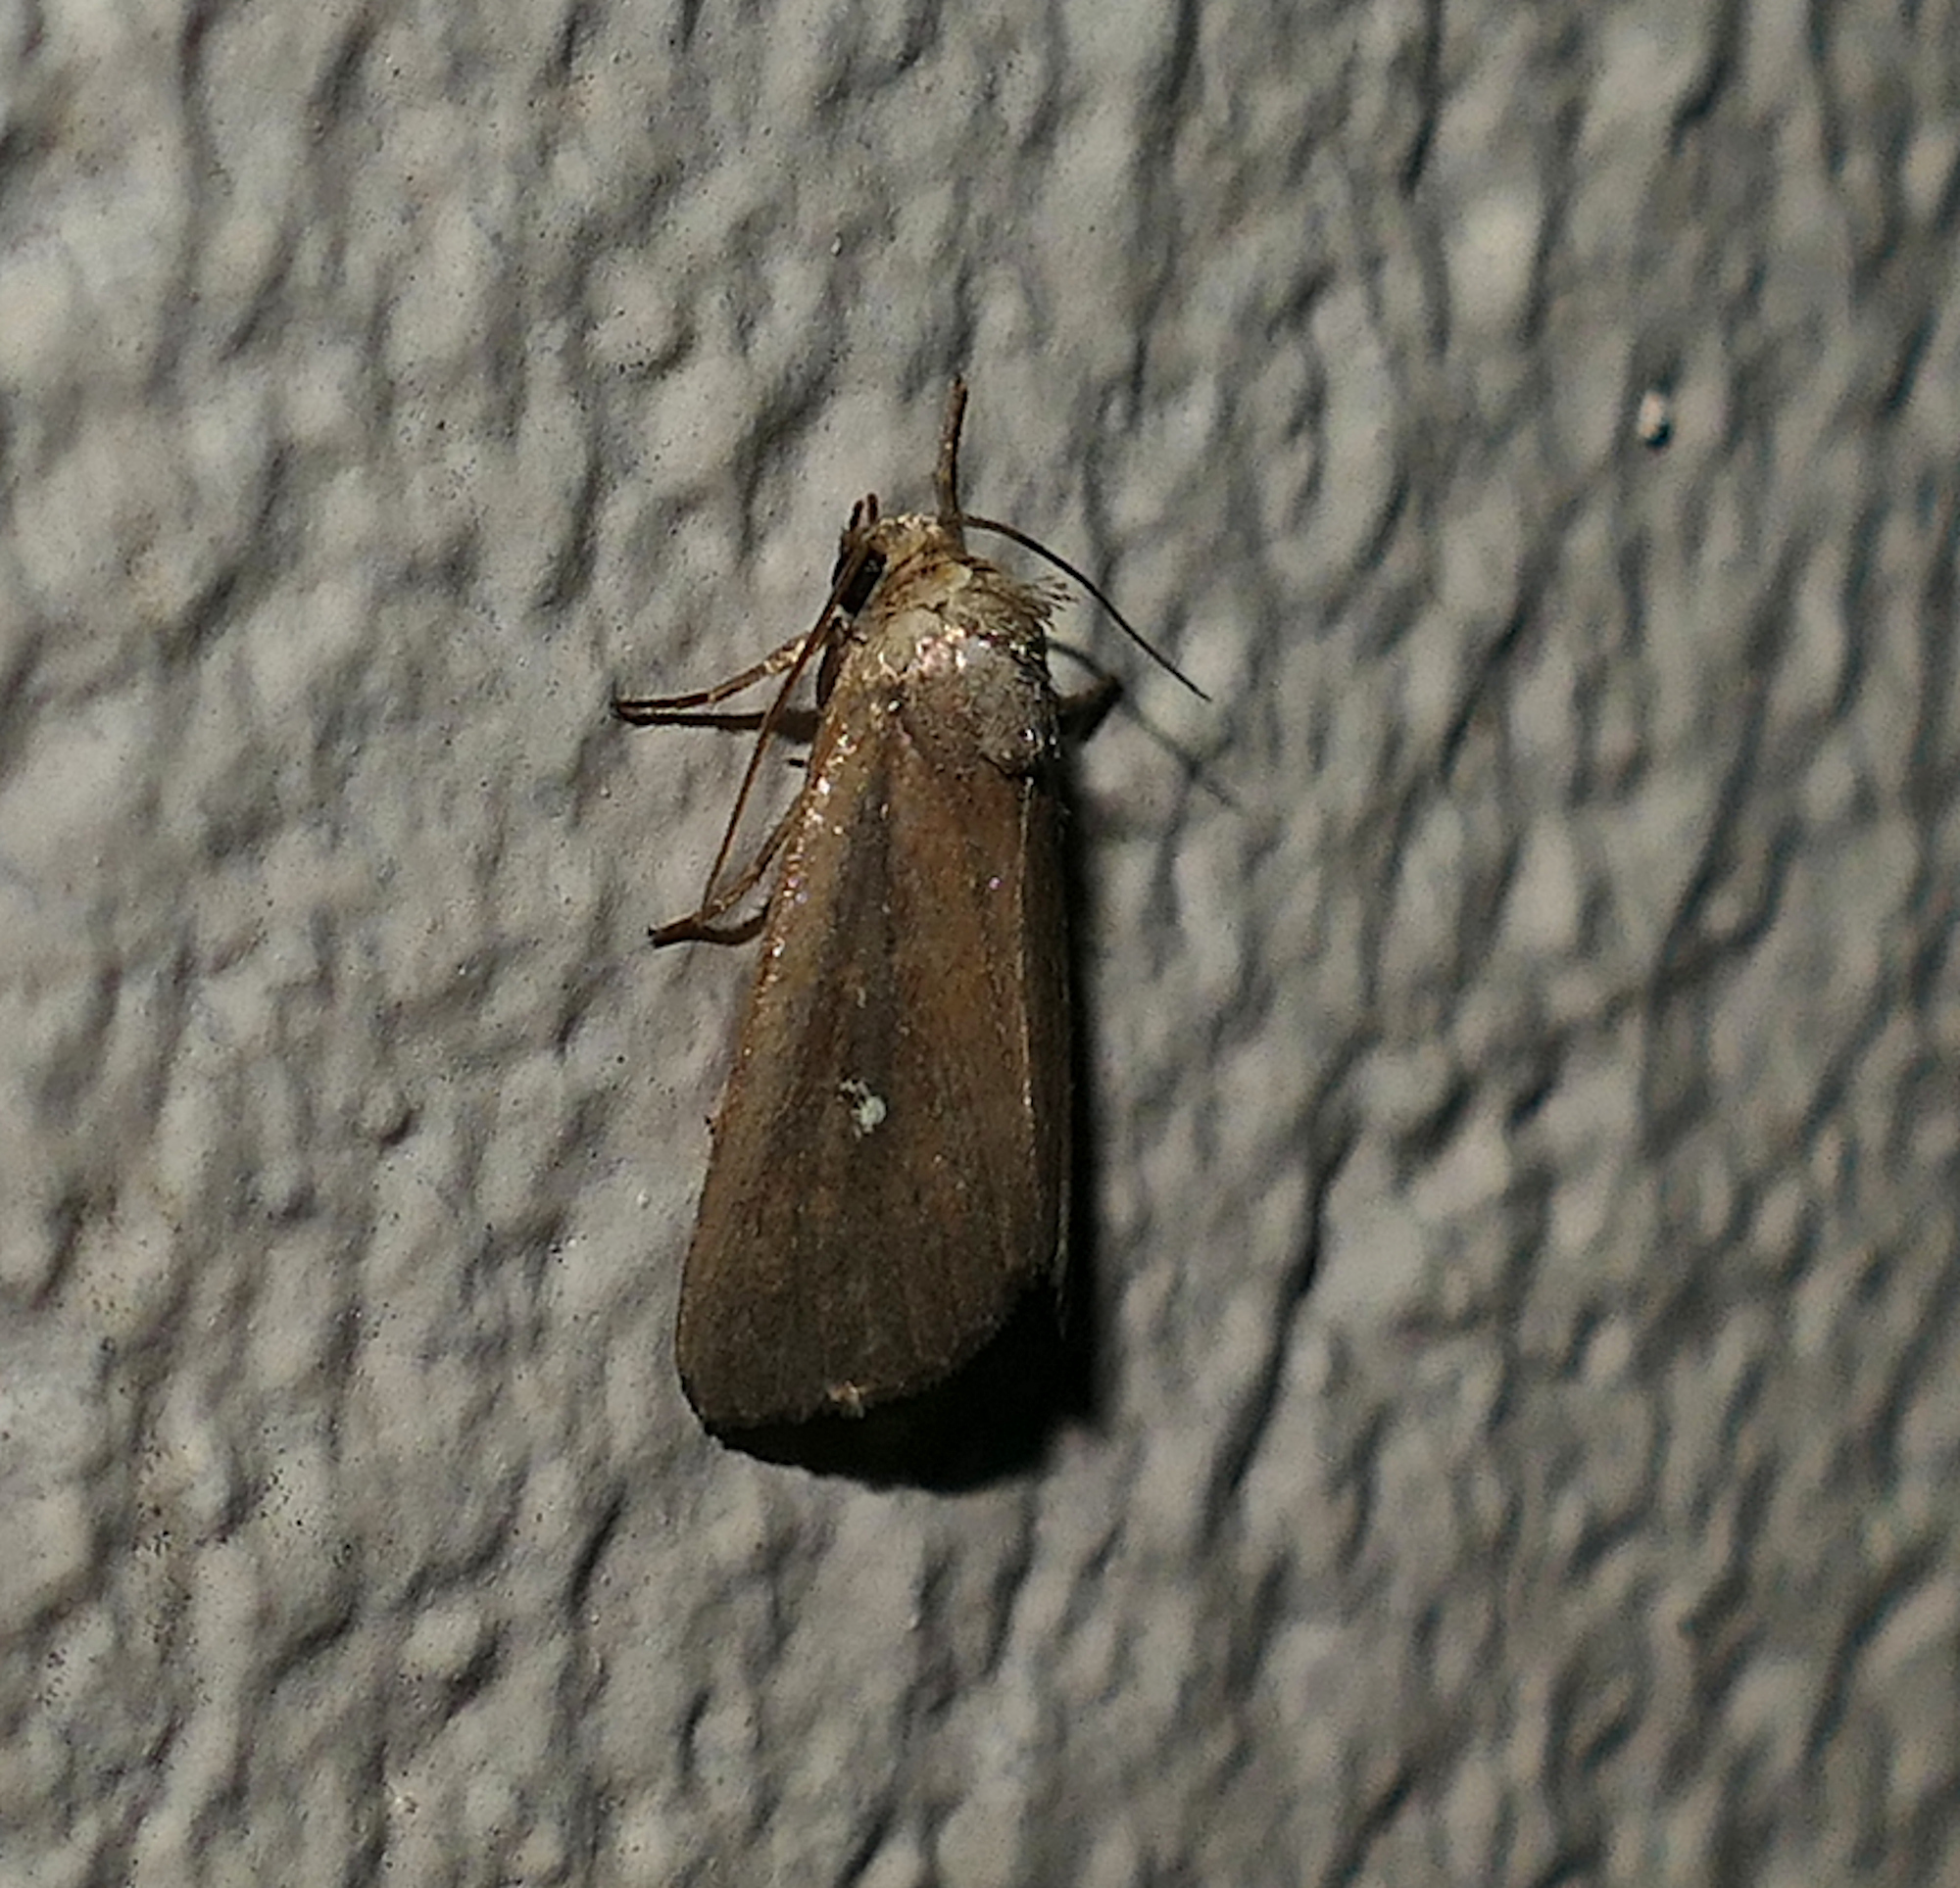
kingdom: Animalia
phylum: Arthropoda
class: Insecta
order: Lepidoptera
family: Noctuidae
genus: Condica
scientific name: Condica videns
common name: White-dotted groundling
